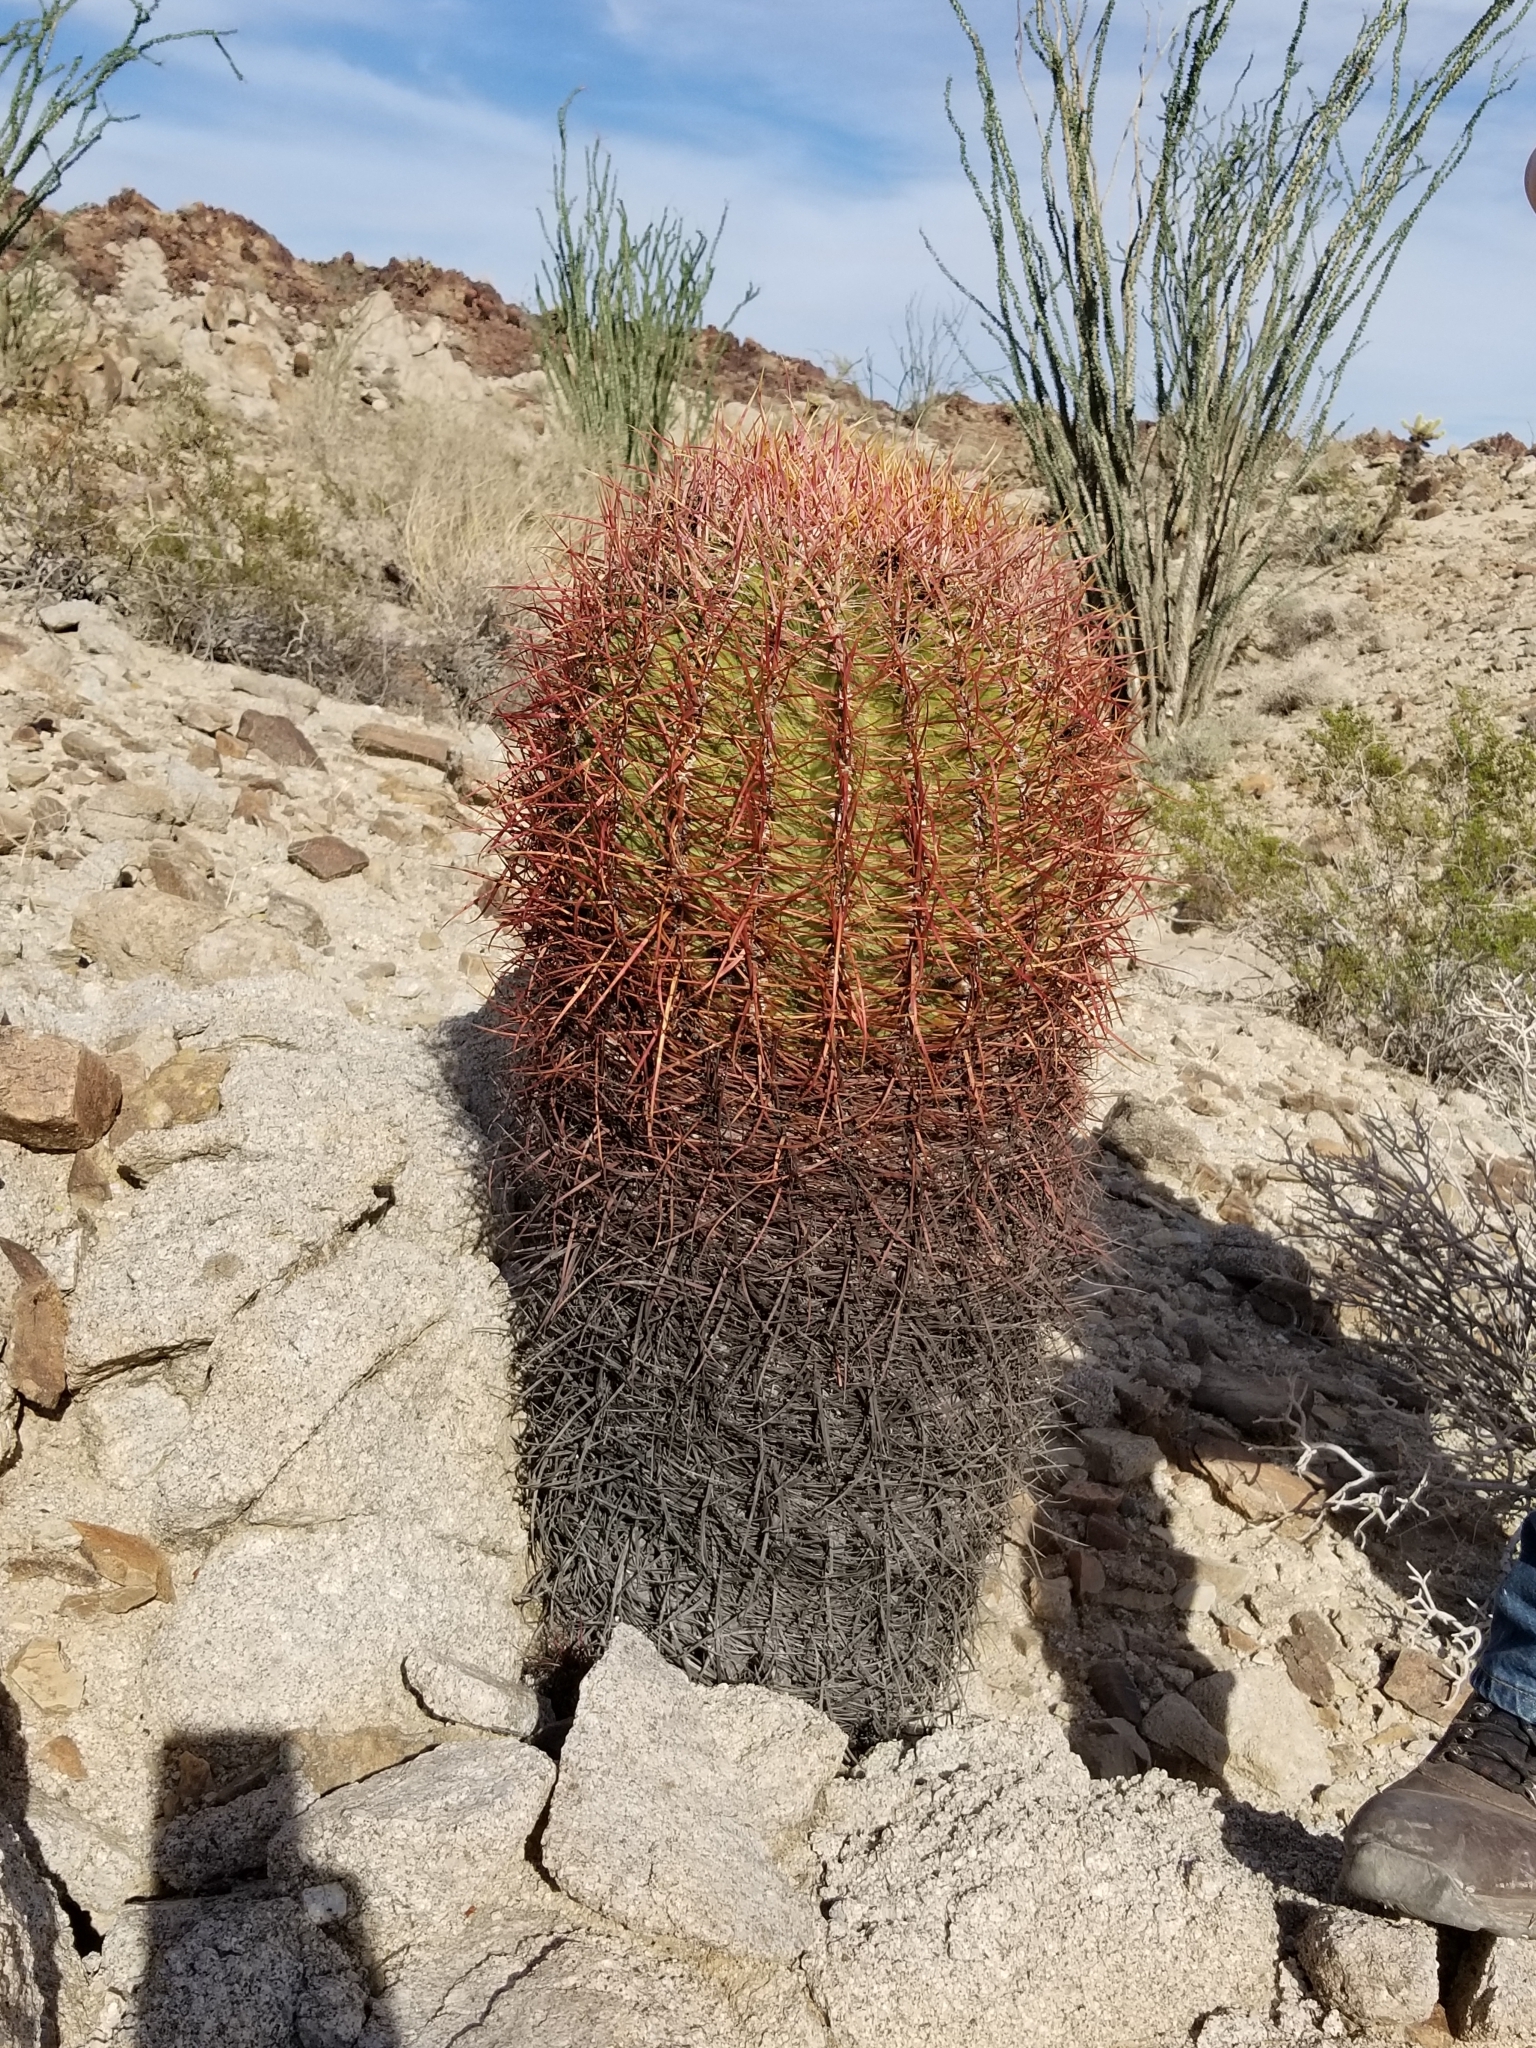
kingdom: Plantae
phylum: Tracheophyta
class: Magnoliopsida
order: Caryophyllales
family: Cactaceae
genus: Ferocactus
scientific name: Ferocactus cylindraceus
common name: California barrel cactus
